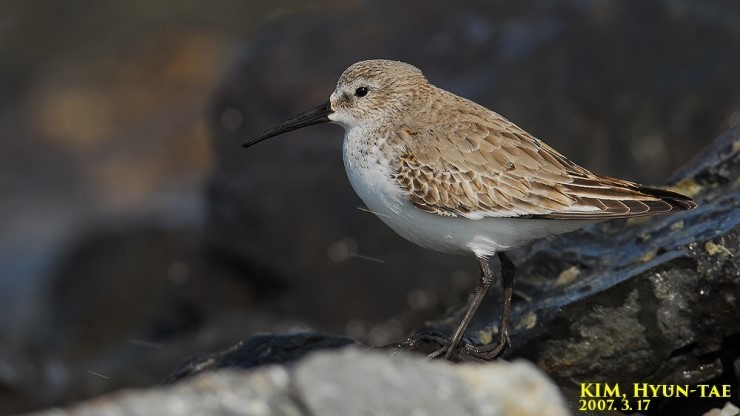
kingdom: Animalia
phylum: Chordata
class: Aves
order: Charadriiformes
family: Scolopacidae
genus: Calidris
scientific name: Calidris alpina
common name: Dunlin
